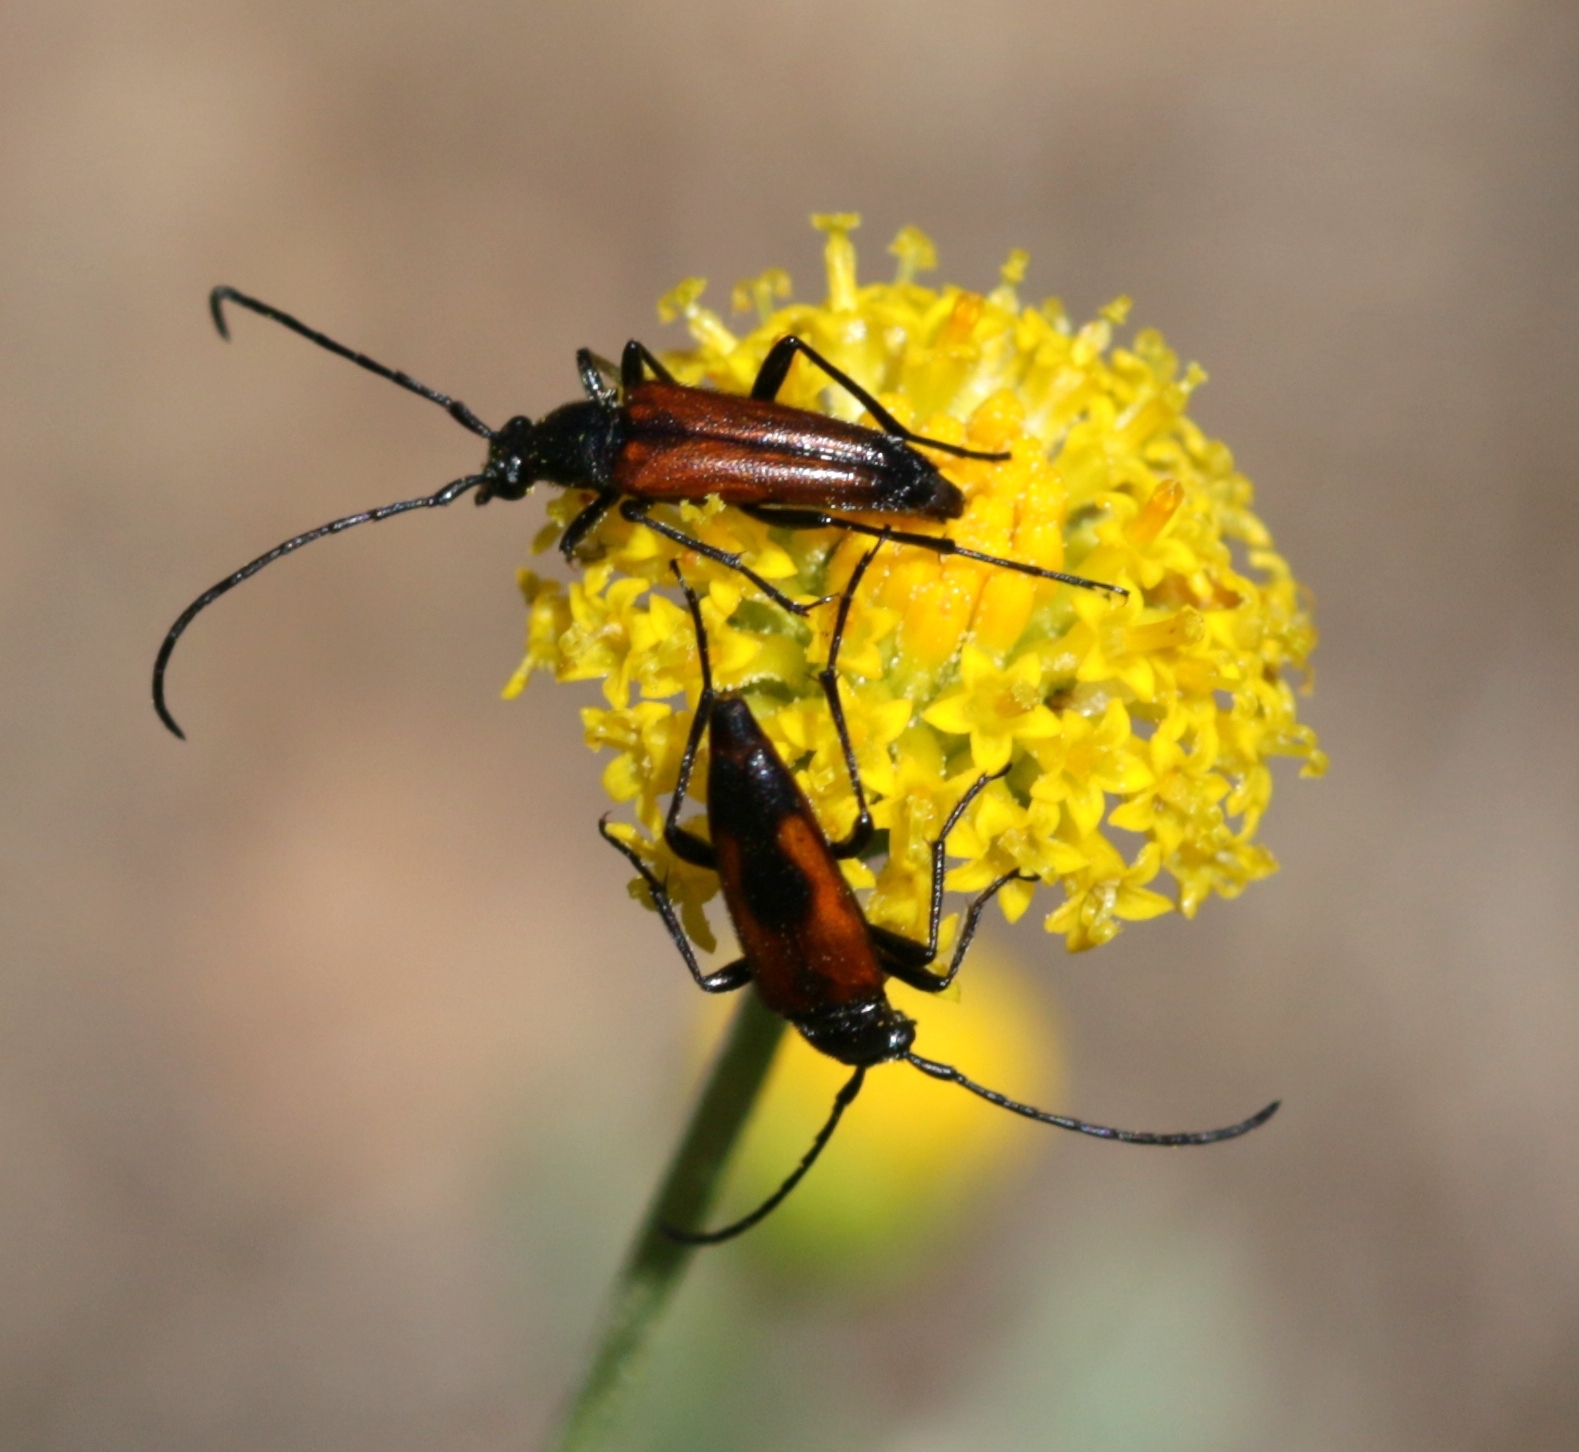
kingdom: Animalia
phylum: Arthropoda
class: Insecta
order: Coleoptera
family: Cerambycidae
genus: Stenurella
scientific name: Stenurella bifasciata
